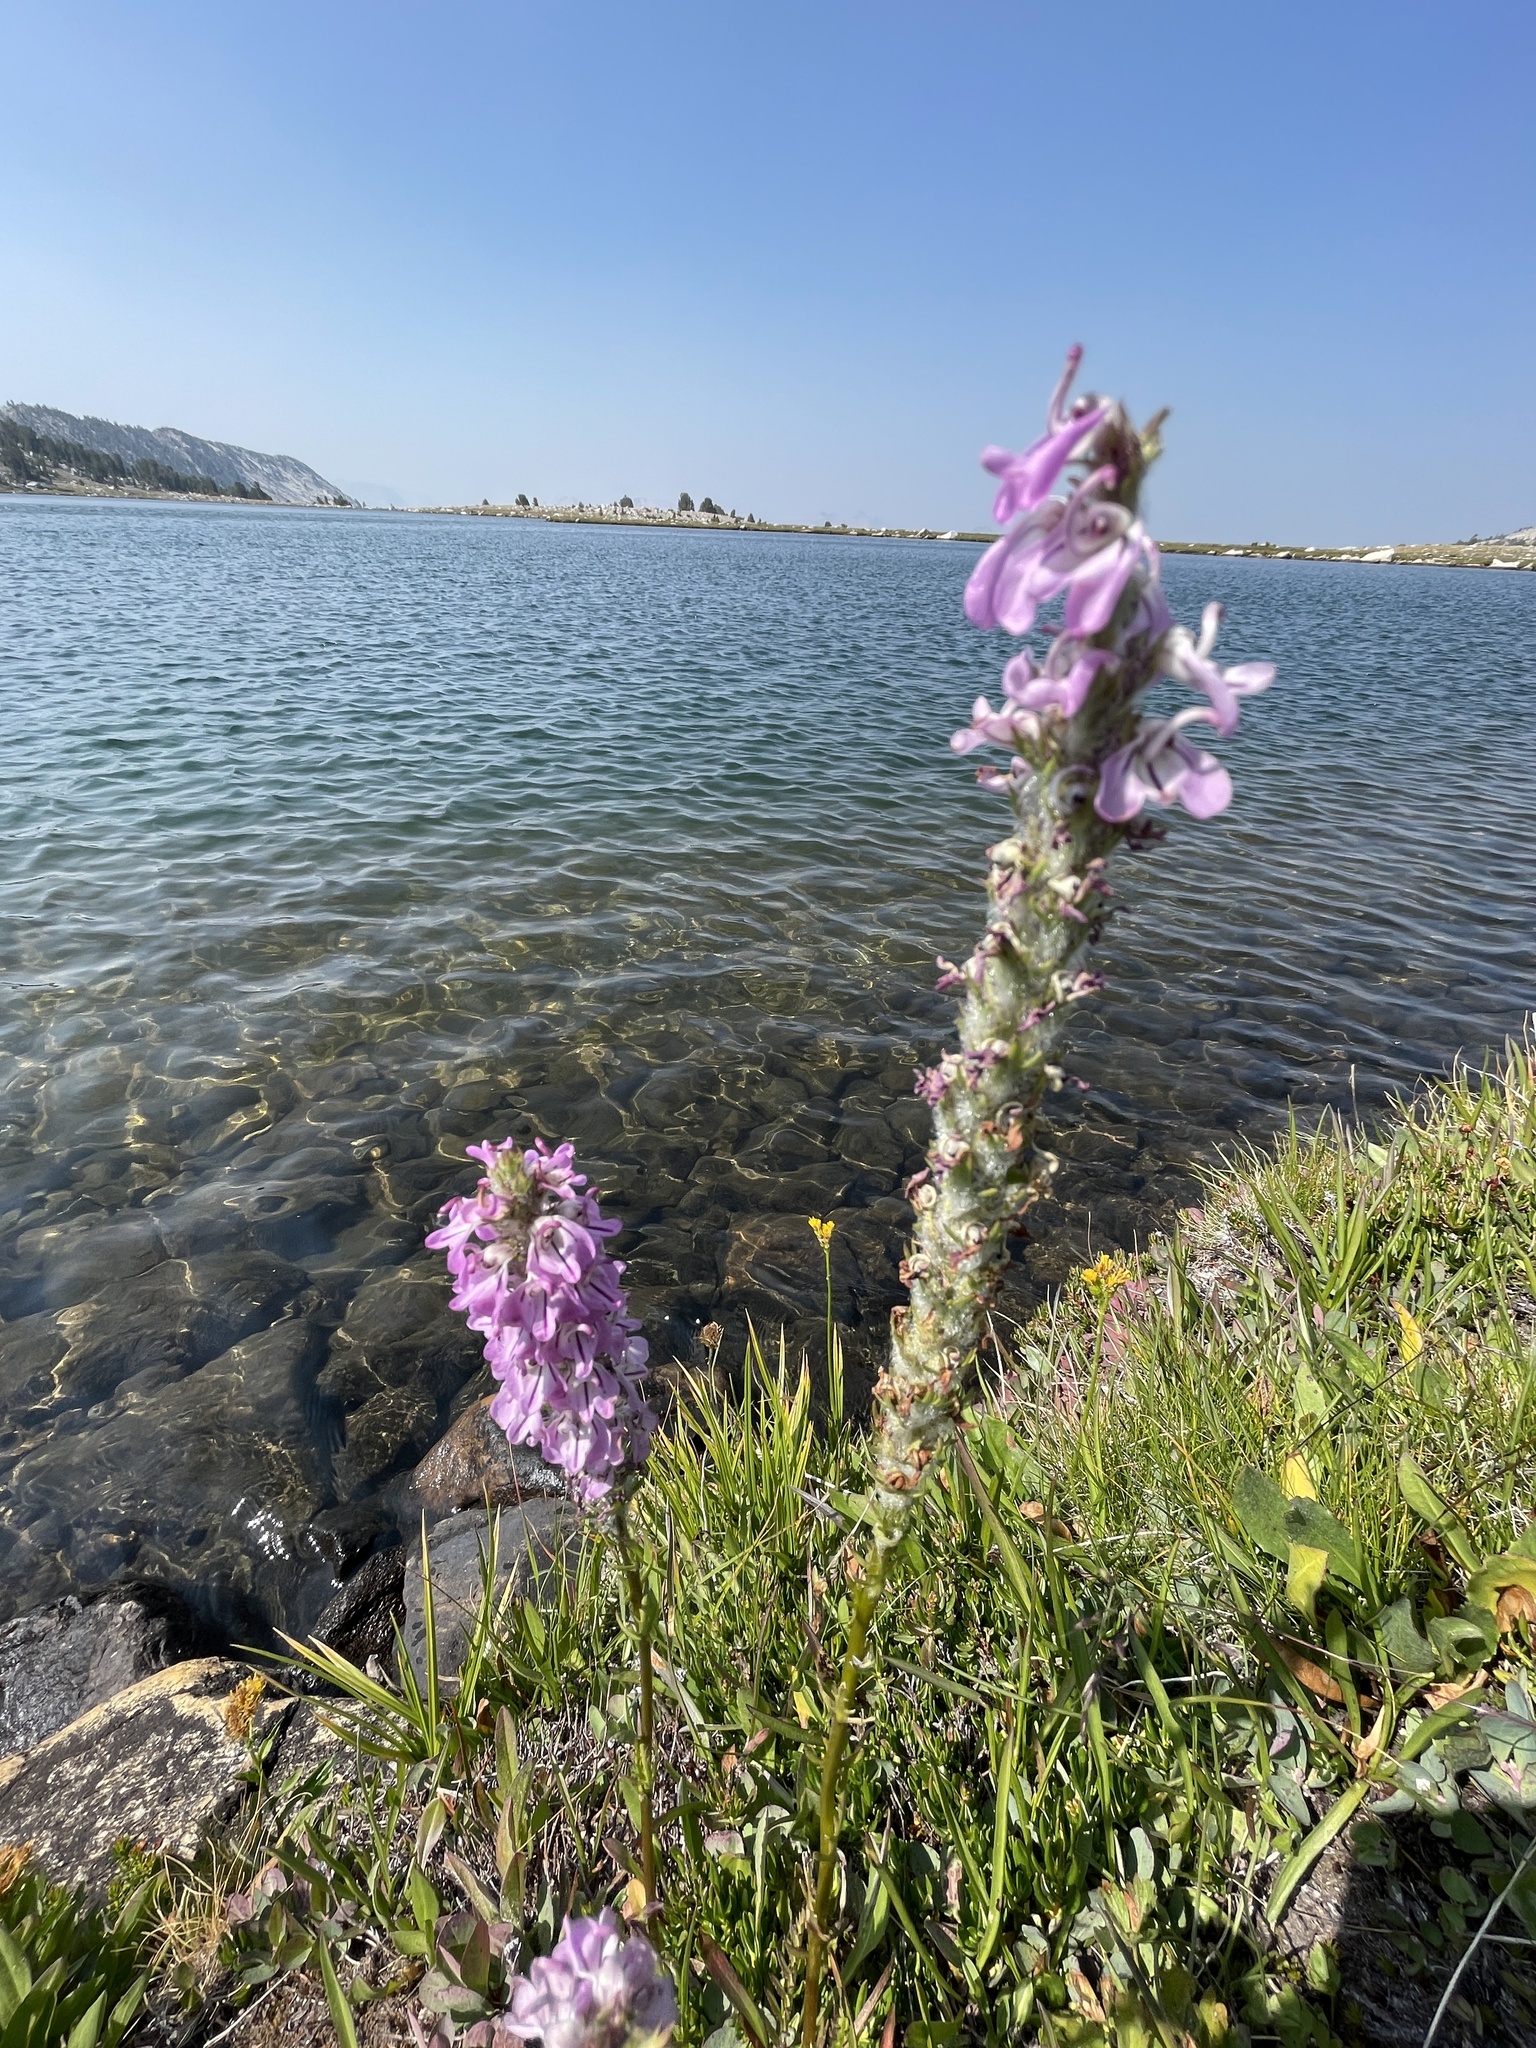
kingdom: Plantae
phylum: Tracheophyta
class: Magnoliopsida
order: Lamiales
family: Orobanchaceae
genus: Pedicularis
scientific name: Pedicularis attollens
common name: Slender pedicularis
